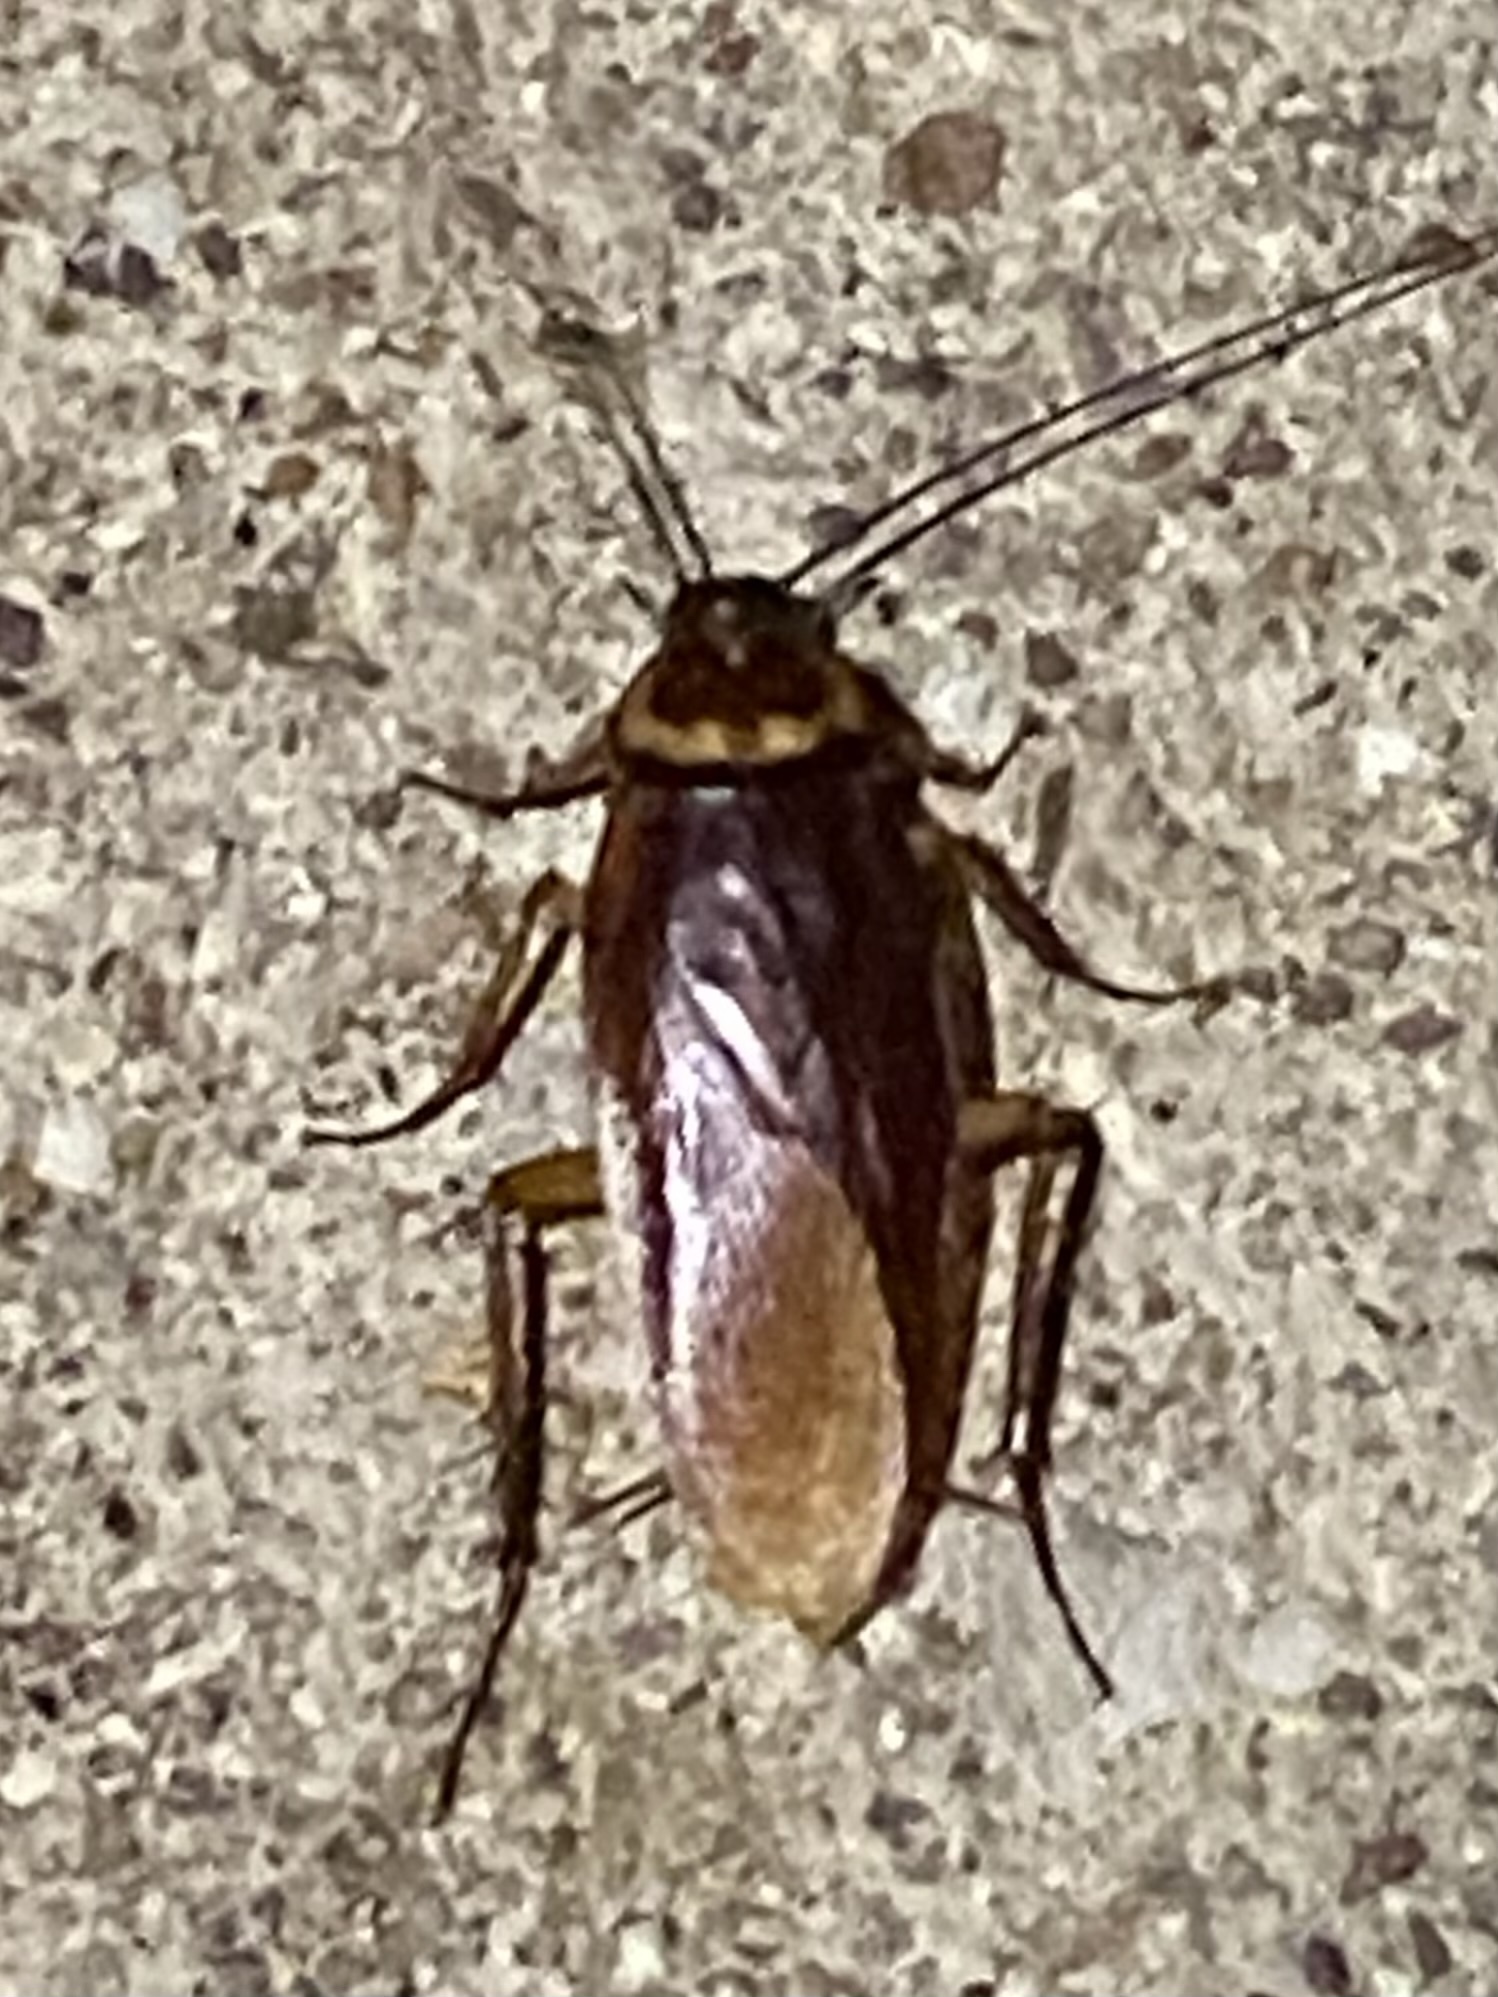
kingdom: Animalia
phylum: Arthropoda
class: Insecta
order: Blattodea
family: Blattidae
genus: Periplaneta
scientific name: Periplaneta americana
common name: American cockroach
